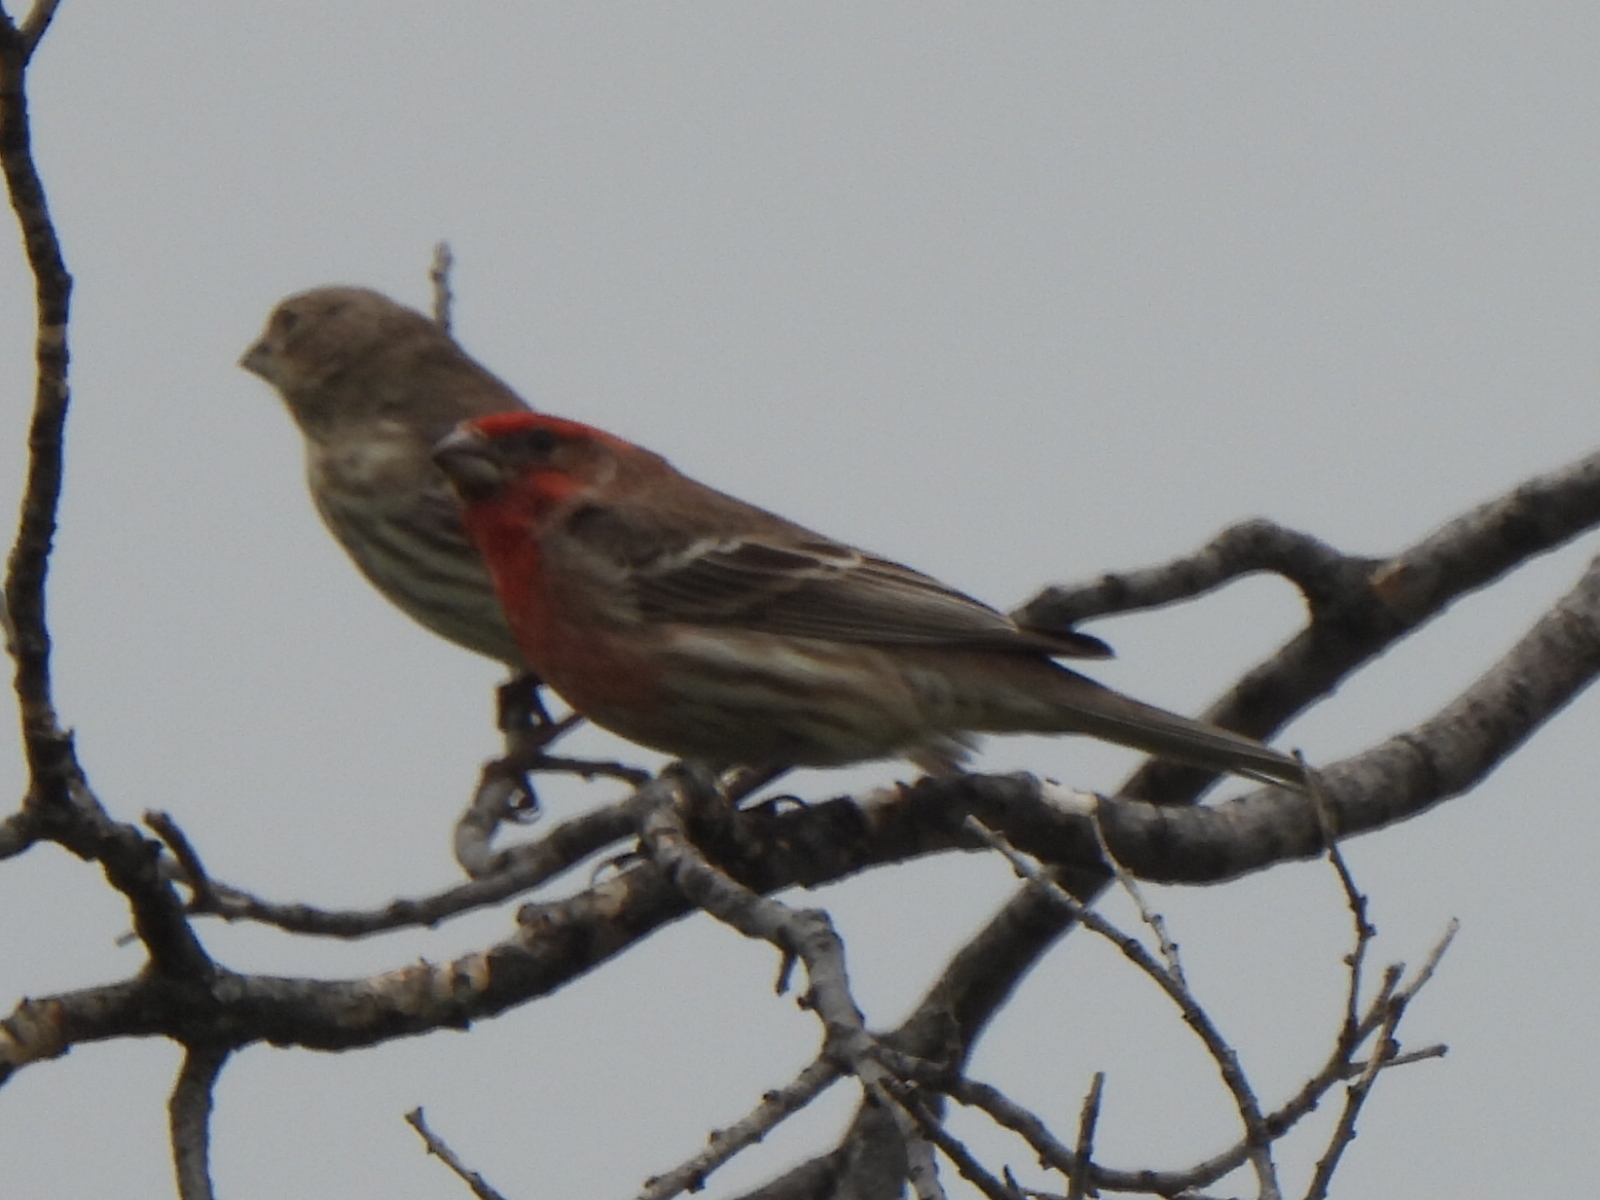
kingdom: Animalia
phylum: Chordata
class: Aves
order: Passeriformes
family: Fringillidae
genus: Haemorhous
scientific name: Haemorhous mexicanus
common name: House finch
